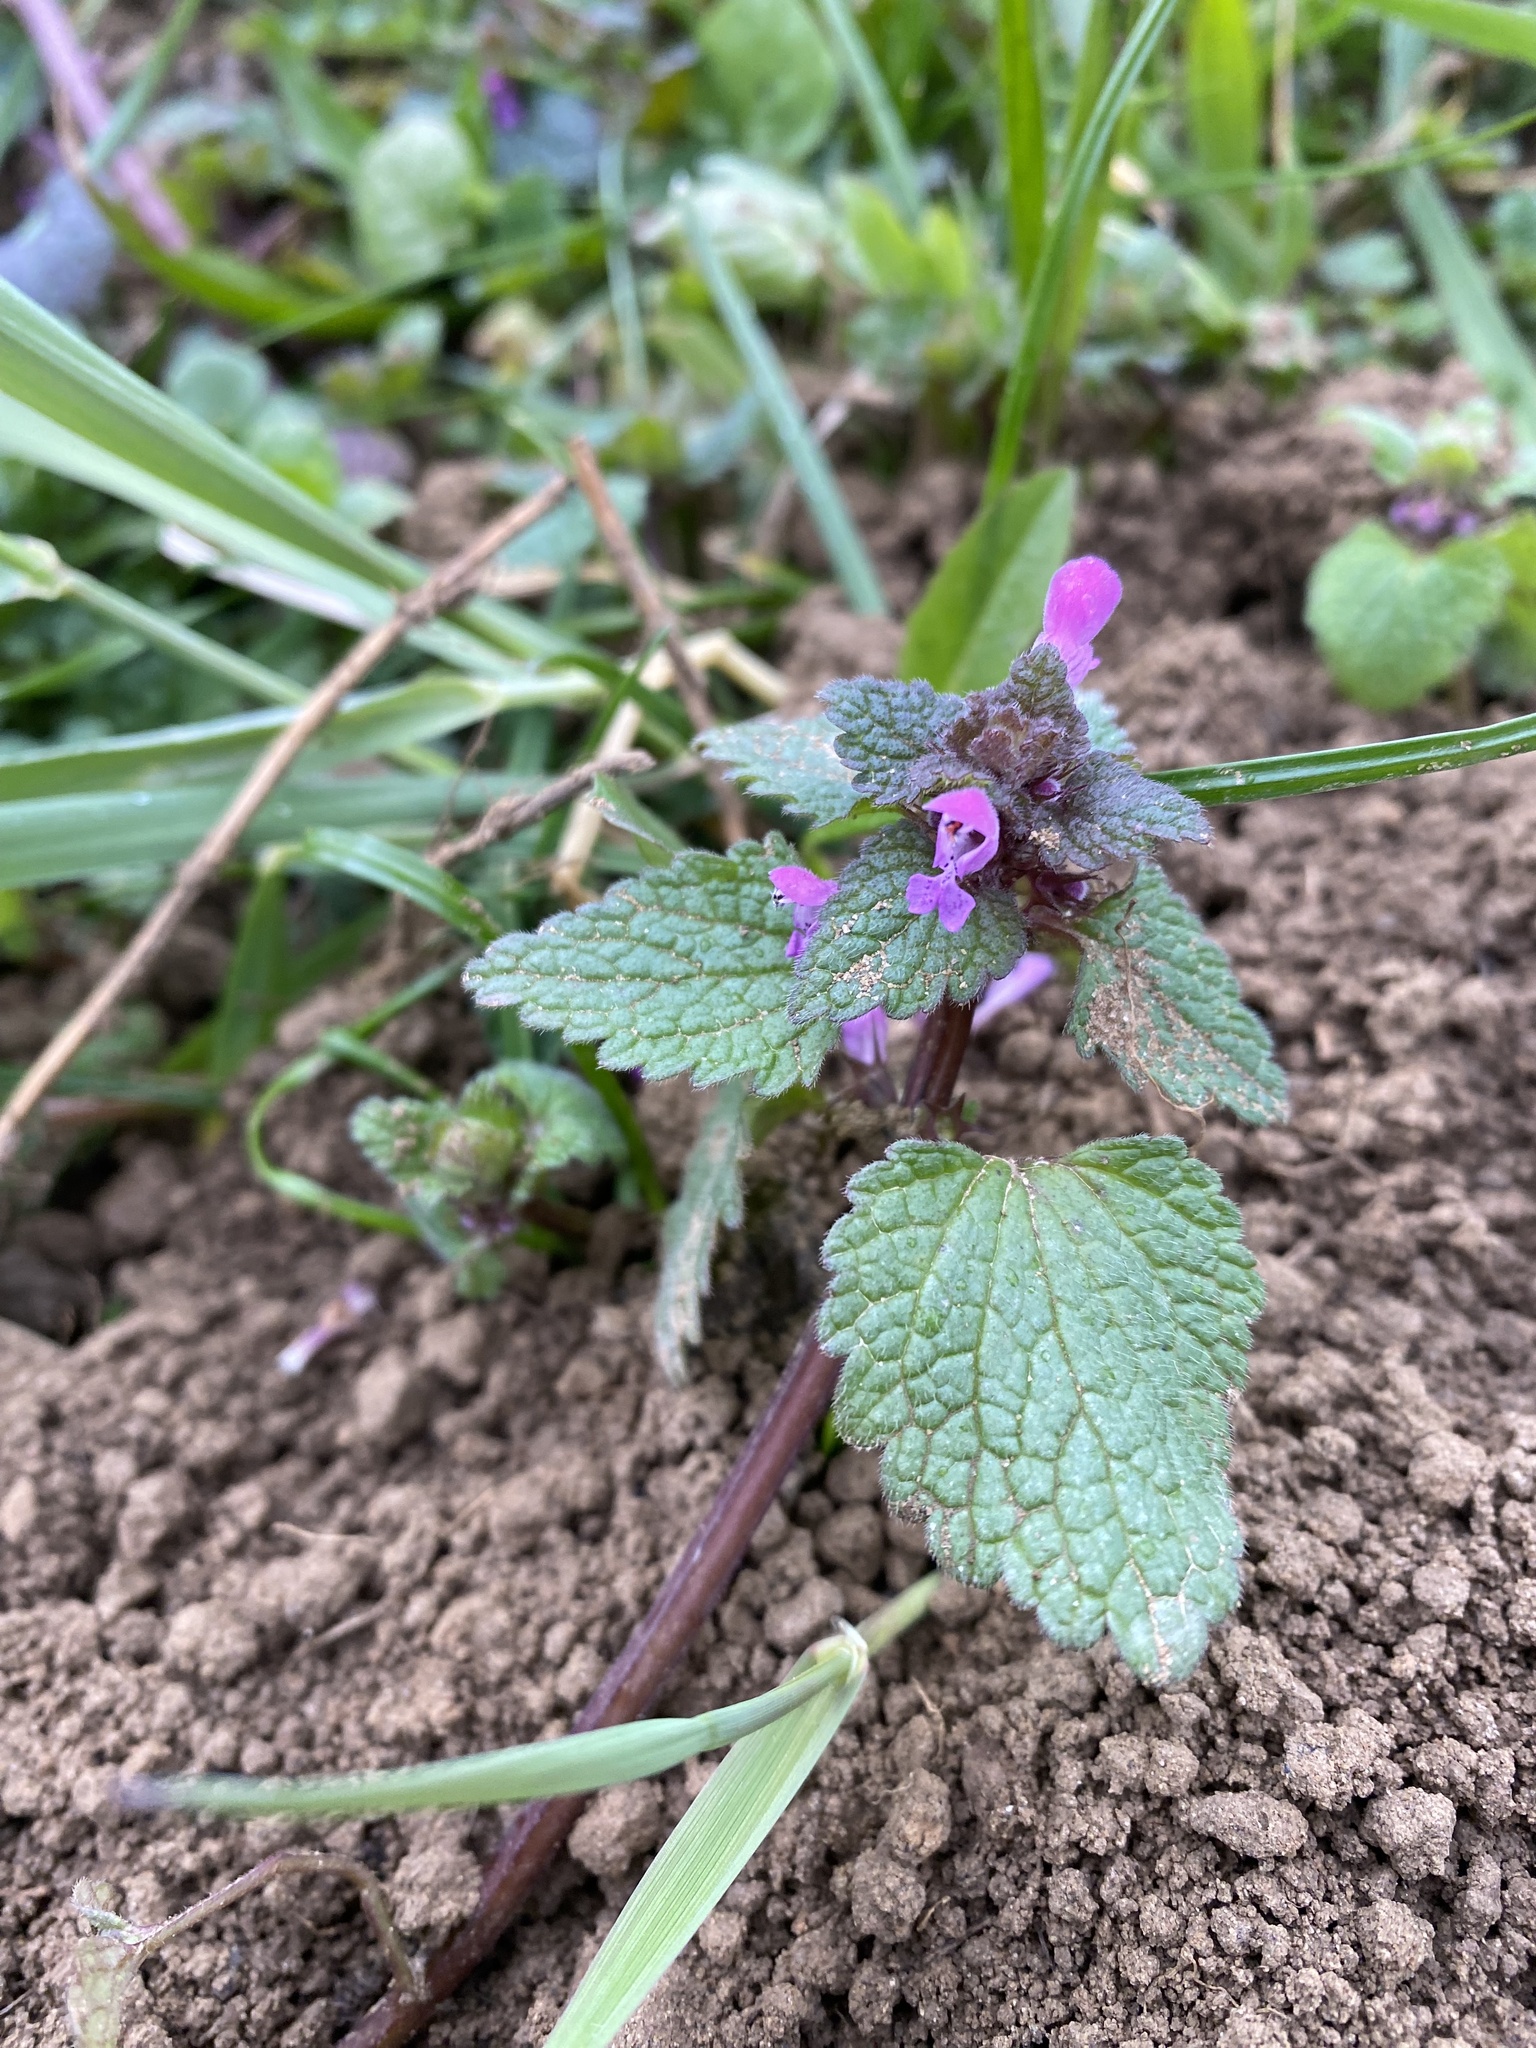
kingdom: Plantae
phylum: Tracheophyta
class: Magnoliopsida
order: Lamiales
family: Lamiaceae
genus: Lamium
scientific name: Lamium purpureum
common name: Red dead-nettle
